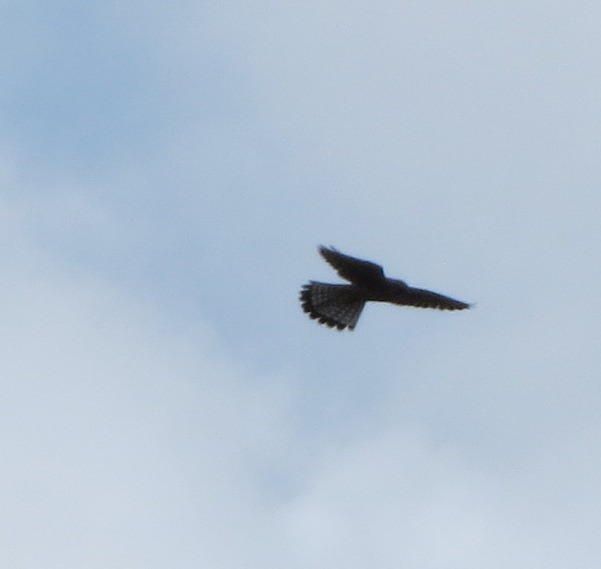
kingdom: Animalia
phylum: Chordata
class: Aves
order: Falconiformes
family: Falconidae
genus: Falco
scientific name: Falco tinnunculus
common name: Common kestrel
